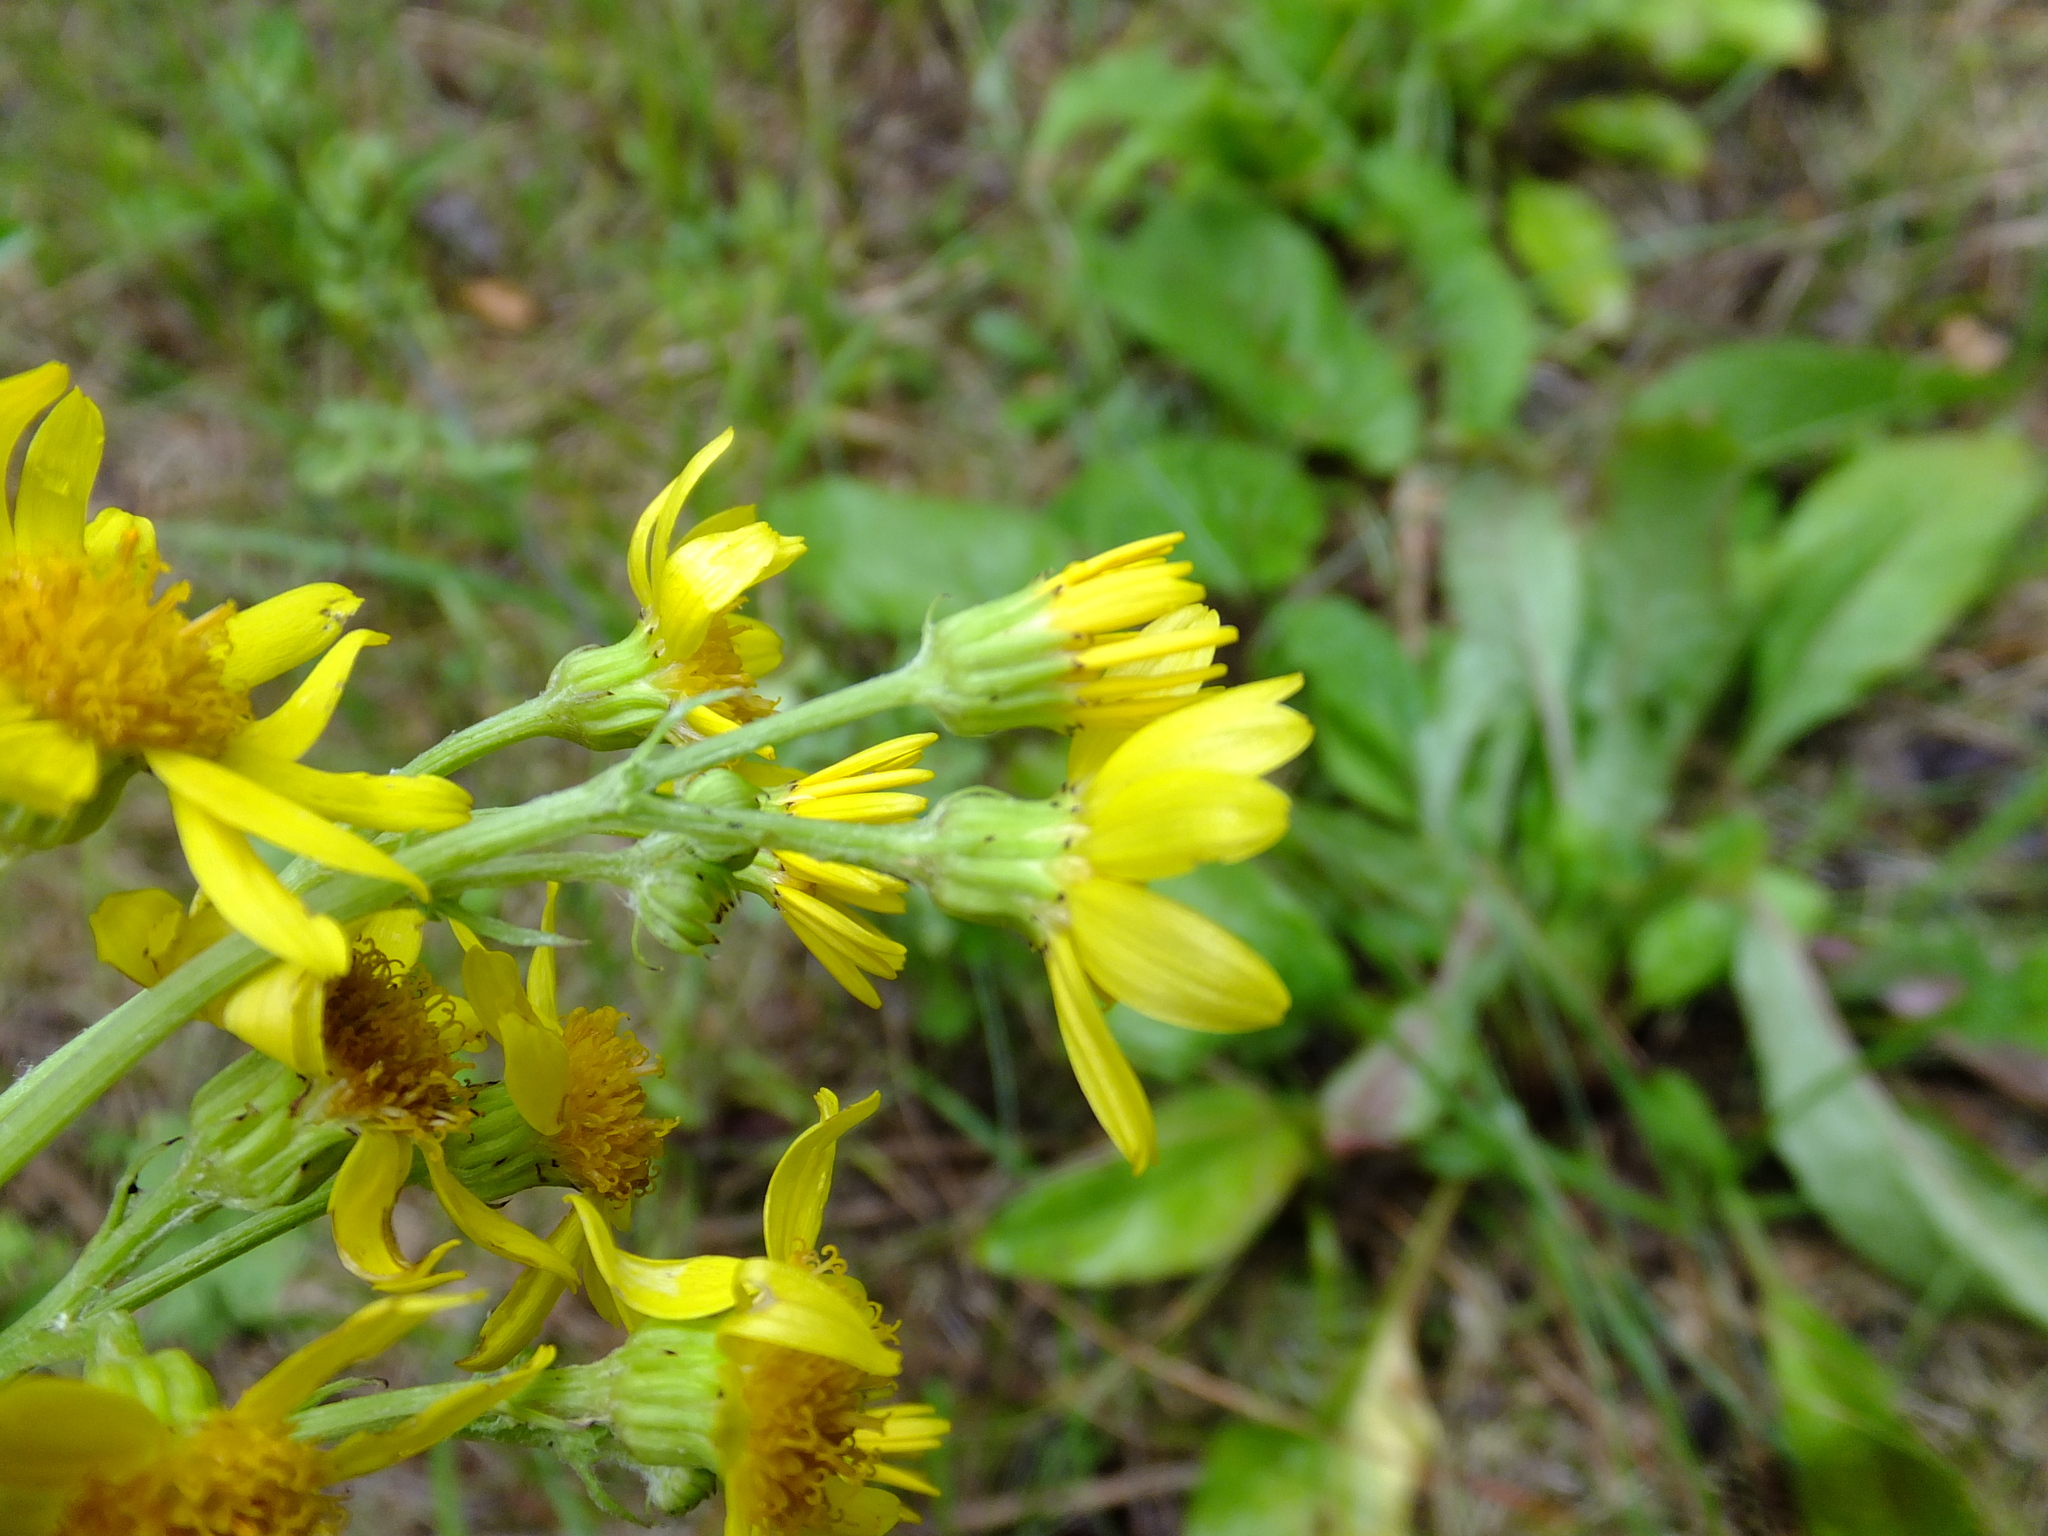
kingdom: Plantae
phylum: Tracheophyta
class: Magnoliopsida
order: Asterales
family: Asteraceae
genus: Jacobaea
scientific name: Jacobaea vulgaris
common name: Stinking willie
